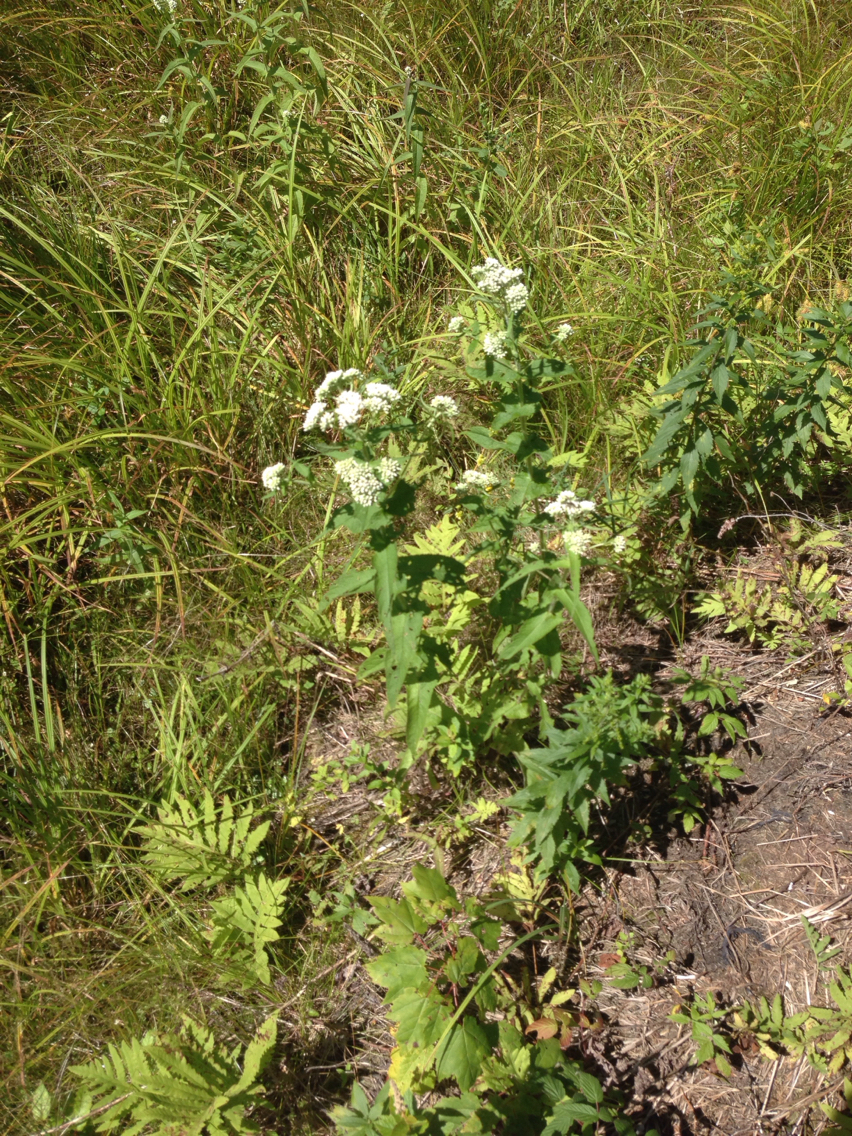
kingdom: Plantae
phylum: Tracheophyta
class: Magnoliopsida
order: Asterales
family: Asteraceae
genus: Eupatorium
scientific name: Eupatorium perfoliatum
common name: Boneset
